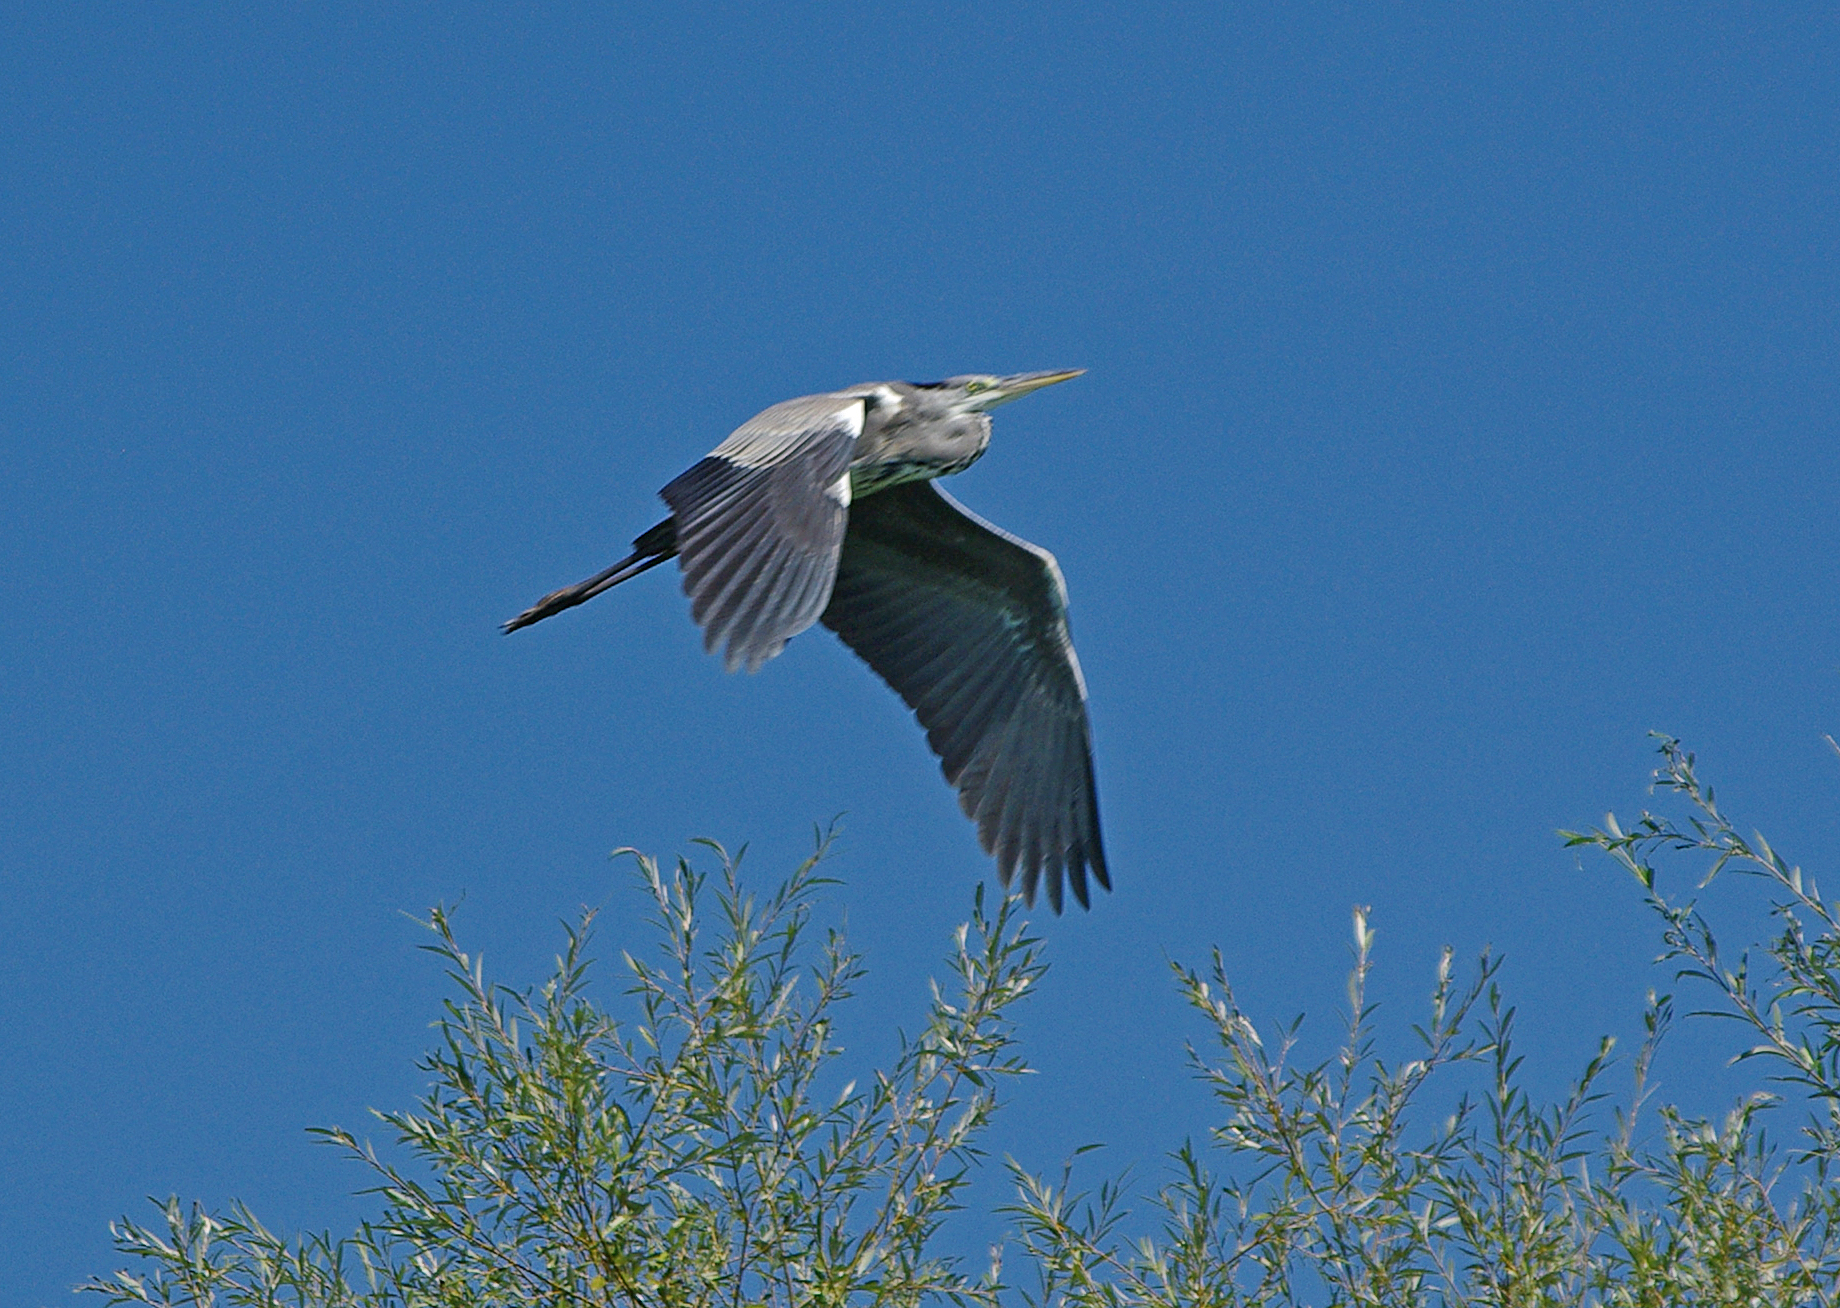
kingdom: Animalia
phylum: Chordata
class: Aves
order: Pelecaniformes
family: Ardeidae
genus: Ardea
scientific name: Ardea cinerea
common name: Grey heron
